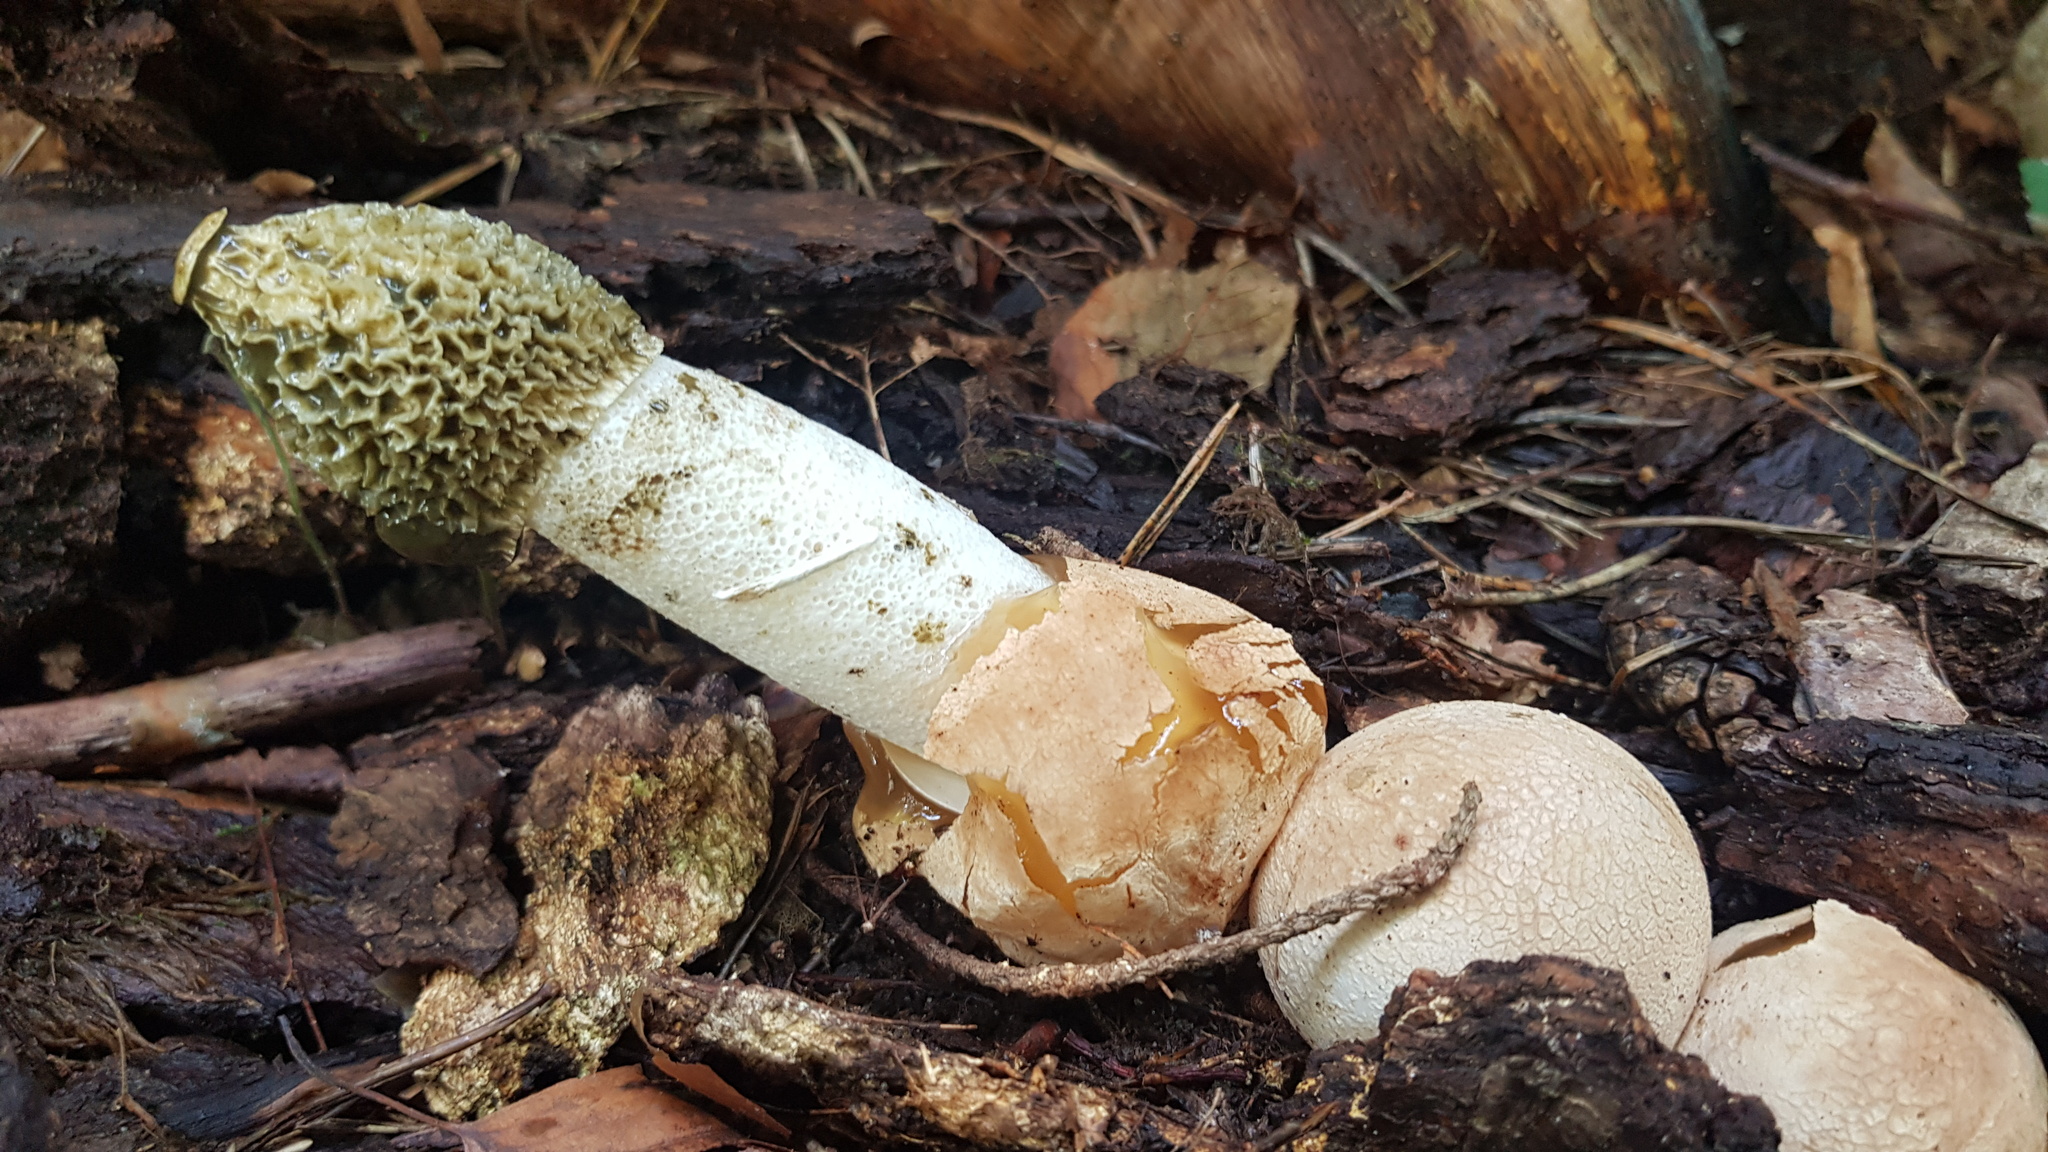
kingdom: Fungi
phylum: Basidiomycota
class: Agaricomycetes
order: Phallales
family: Phallaceae
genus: Phallus
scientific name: Phallus impudicus
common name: Common stinkhorn
